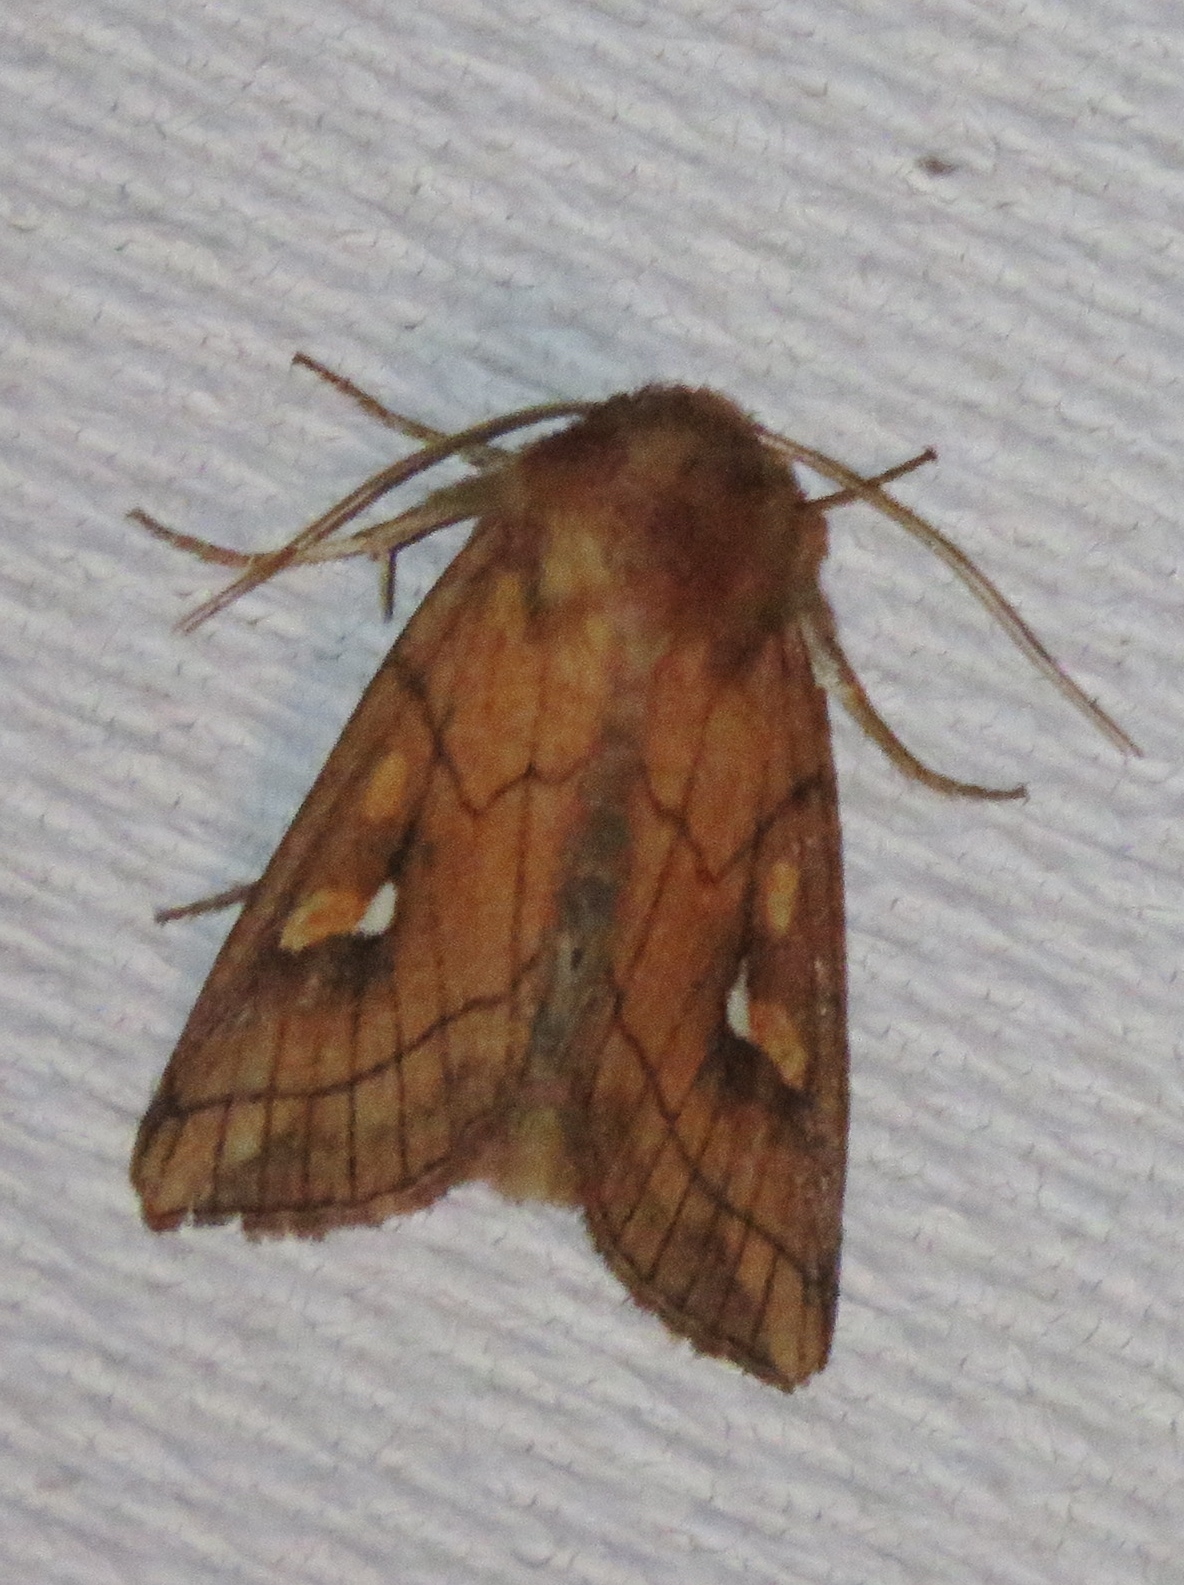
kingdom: Animalia
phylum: Arthropoda
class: Insecta
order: Lepidoptera
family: Noctuidae
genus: Mythimna
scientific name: Mythimna conigera
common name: Brown-line bright-eye
